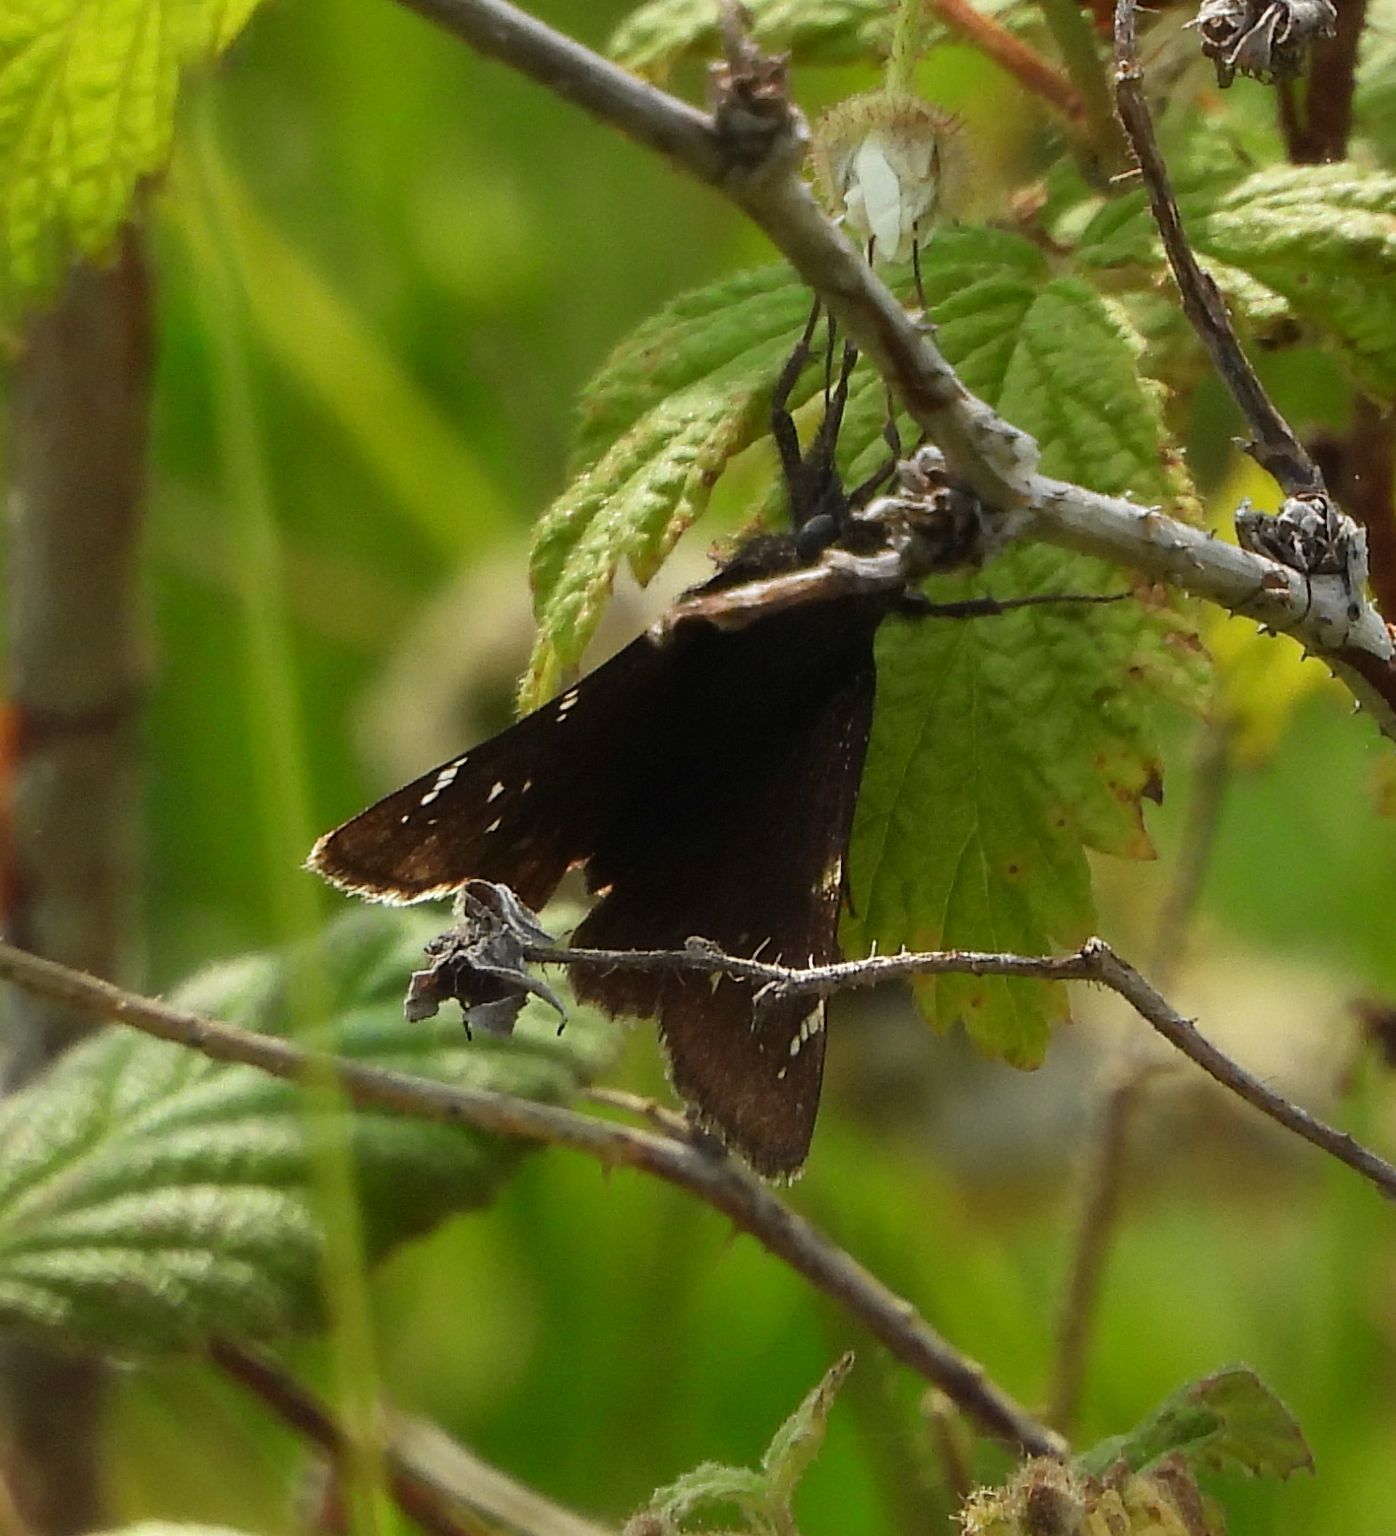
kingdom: Animalia
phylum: Arthropoda
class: Insecta
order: Lepidoptera
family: Hesperiidae
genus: Thorybes
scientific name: Thorybes pylades
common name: Northern cloudywing
